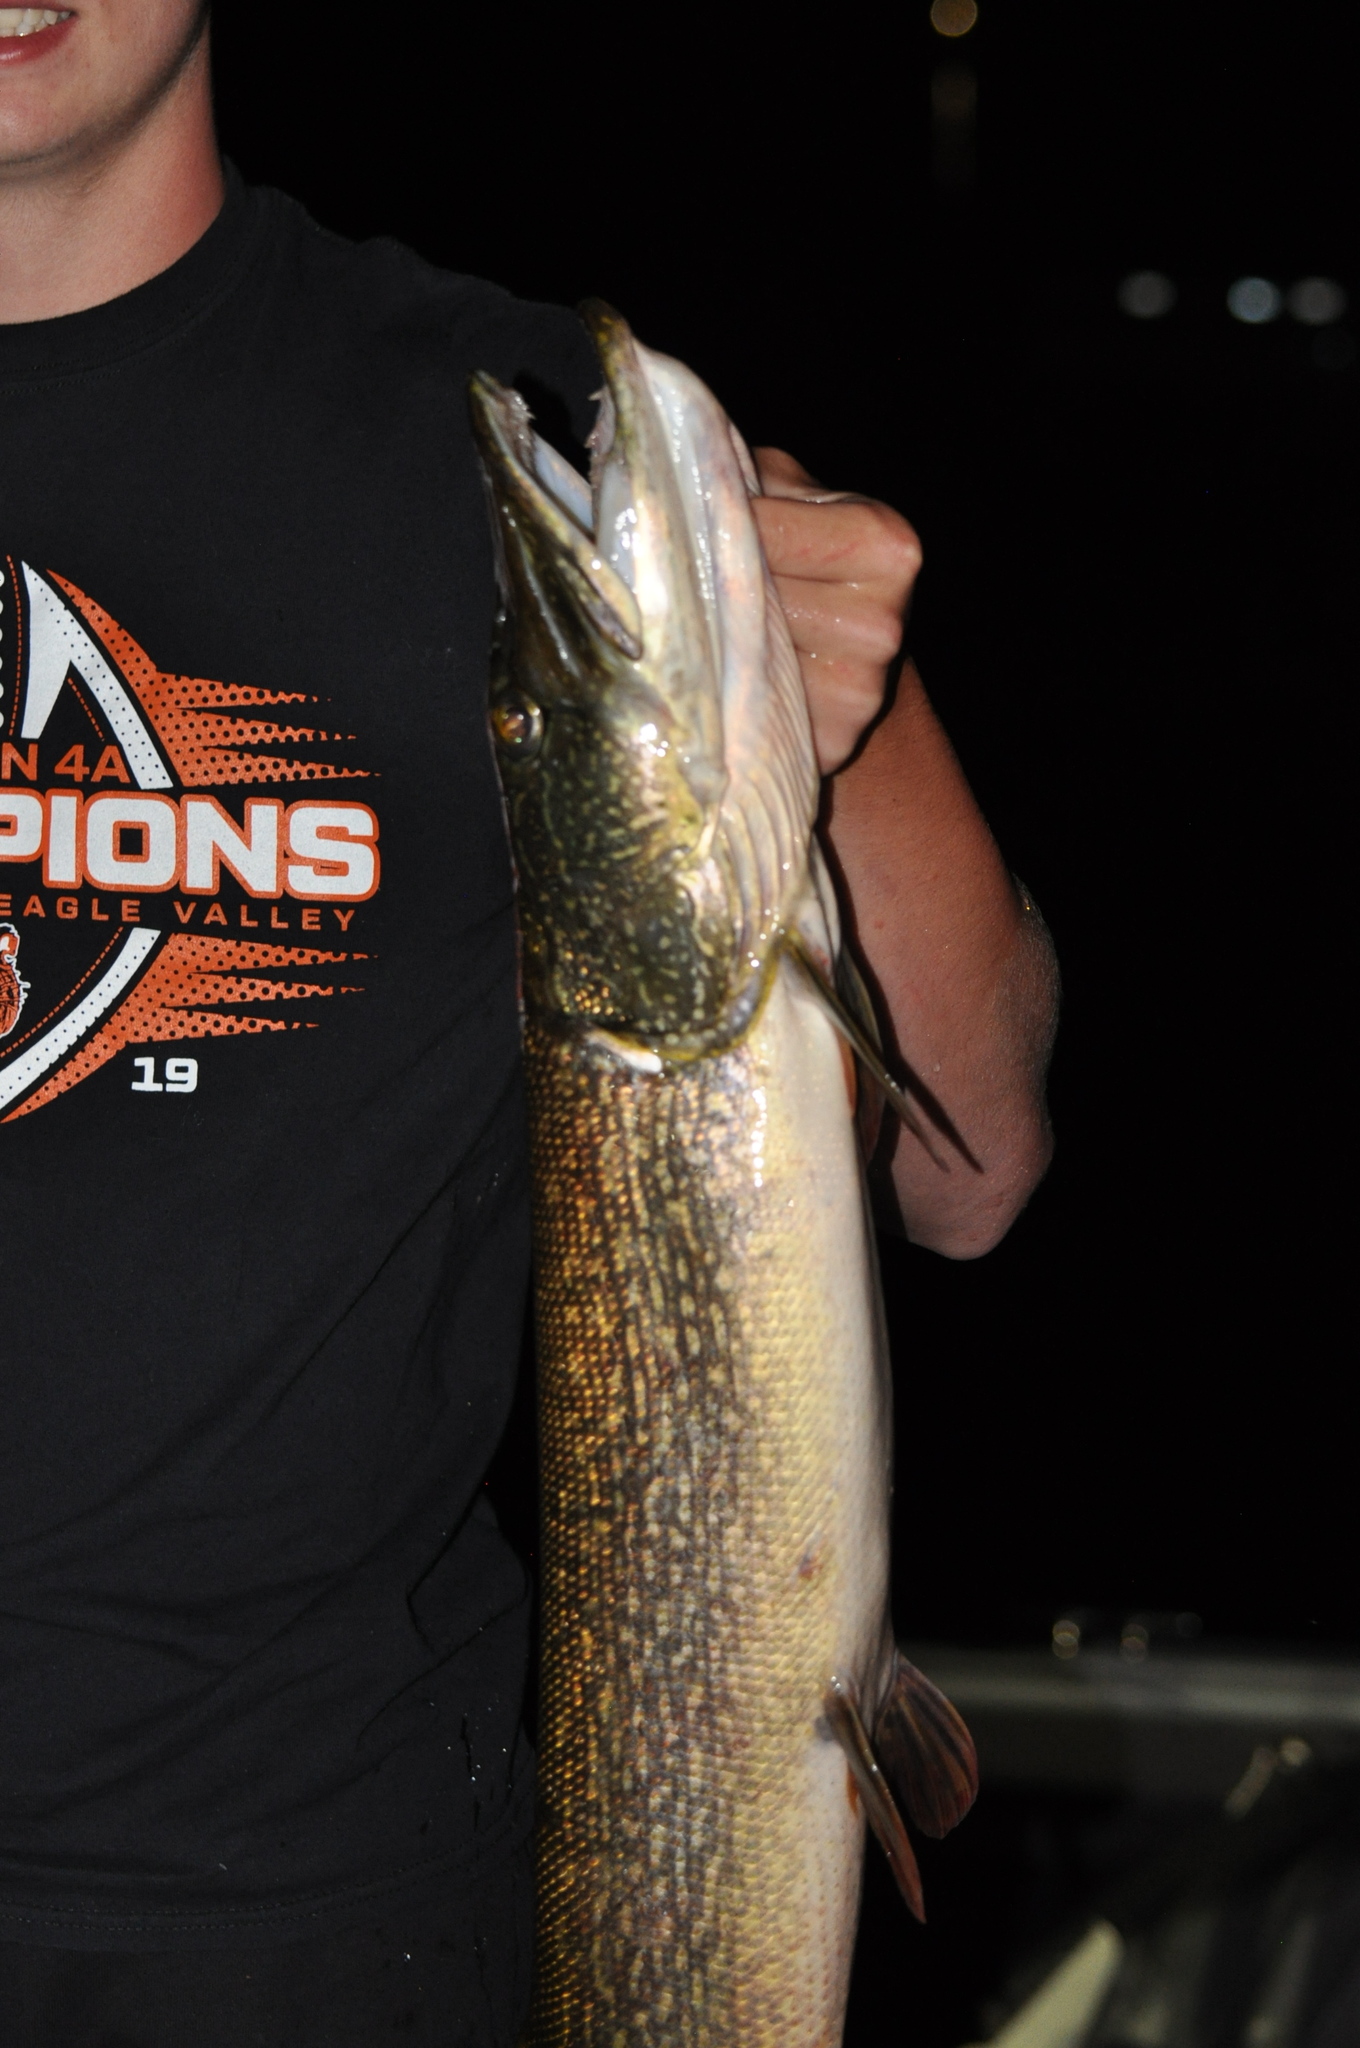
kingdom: Animalia
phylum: Chordata
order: Esociformes
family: Esocidae
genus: Esox
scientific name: Esox lucius
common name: Northern pike
